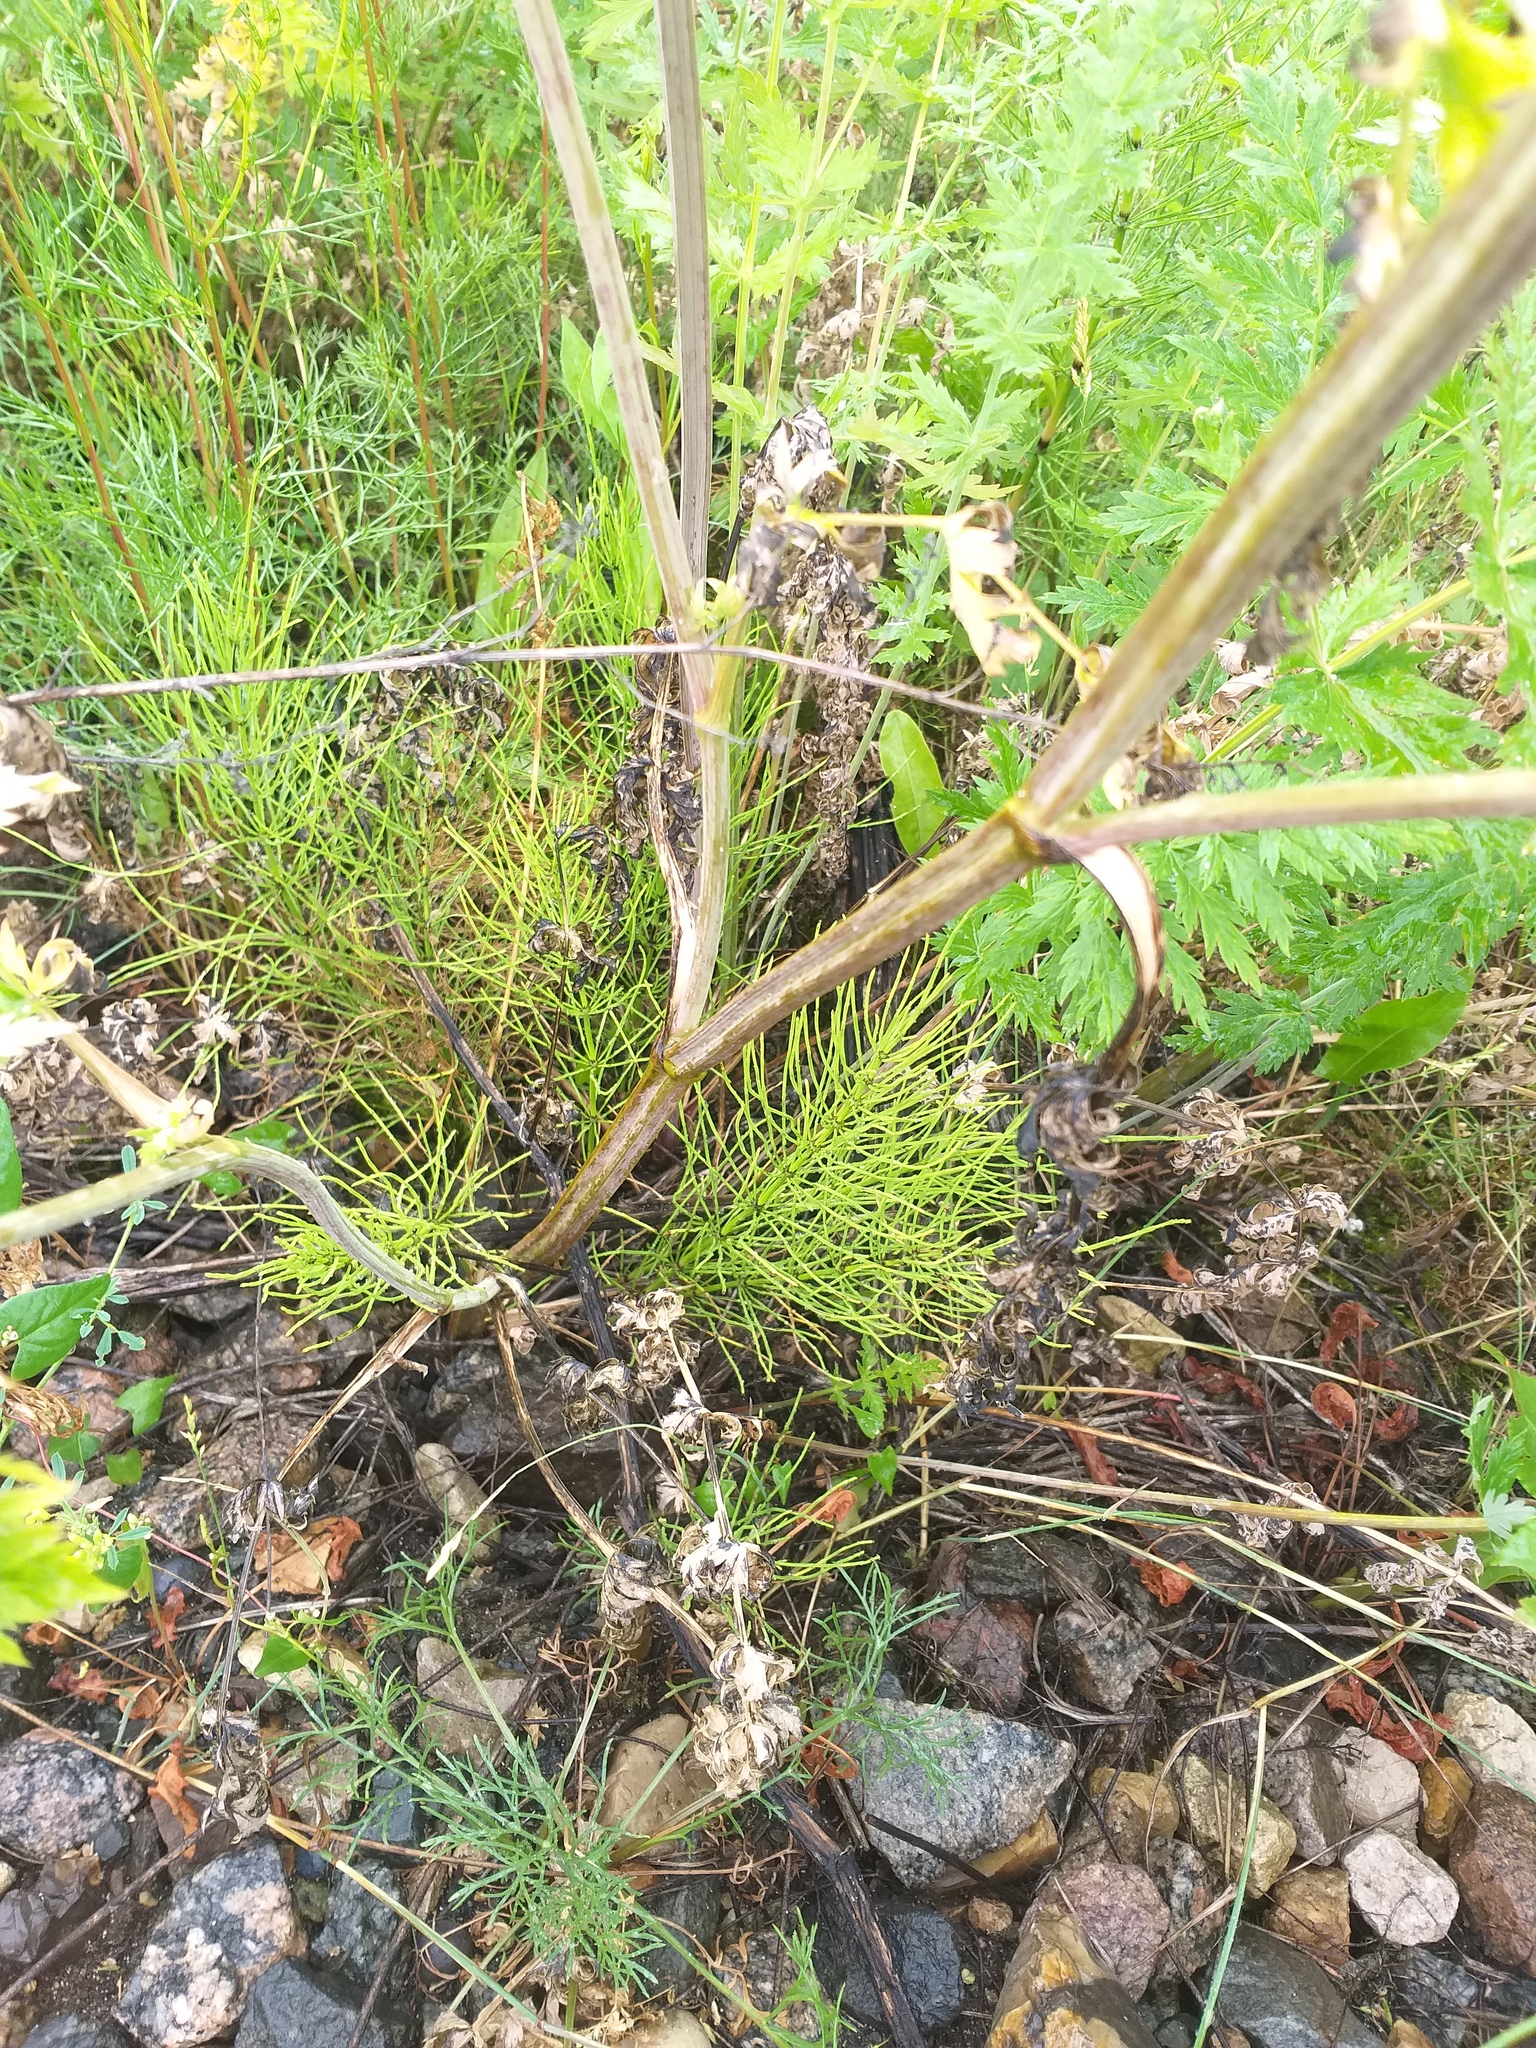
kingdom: Plantae
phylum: Tracheophyta
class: Polypodiopsida
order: Equisetales
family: Equisetaceae
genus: Equisetum
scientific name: Equisetum arvense
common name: Field horsetail
